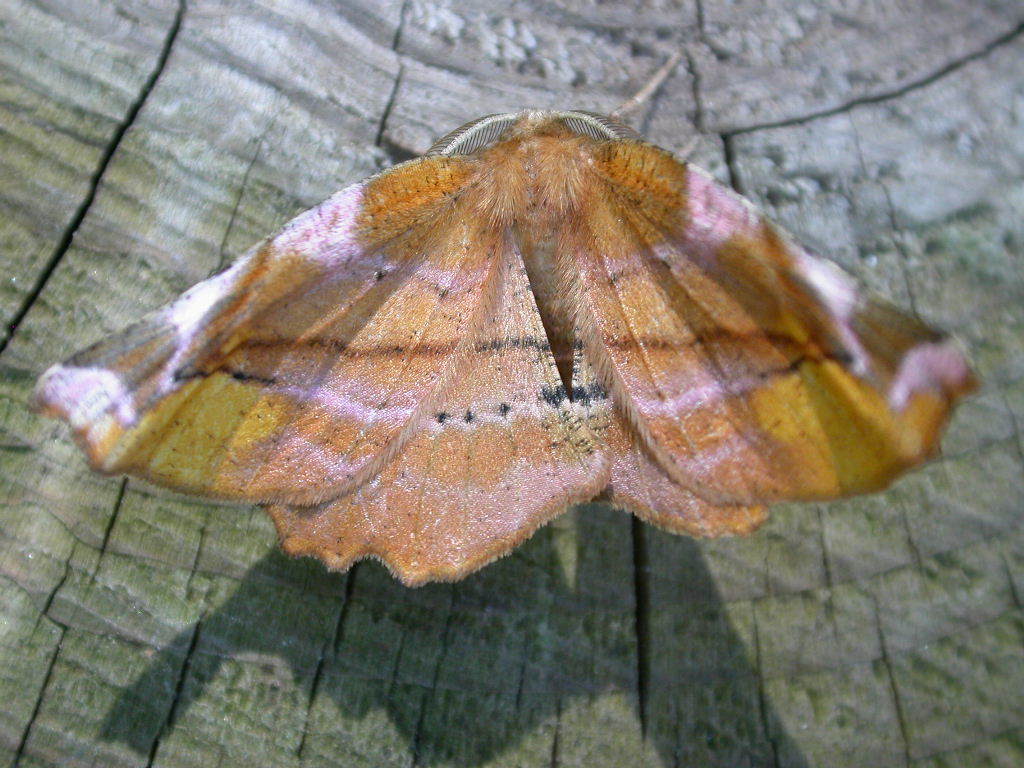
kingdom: Animalia
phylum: Arthropoda
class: Insecta
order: Lepidoptera
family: Geometridae
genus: Apeira
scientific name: Apeira syringaria
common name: Lilac beauty
